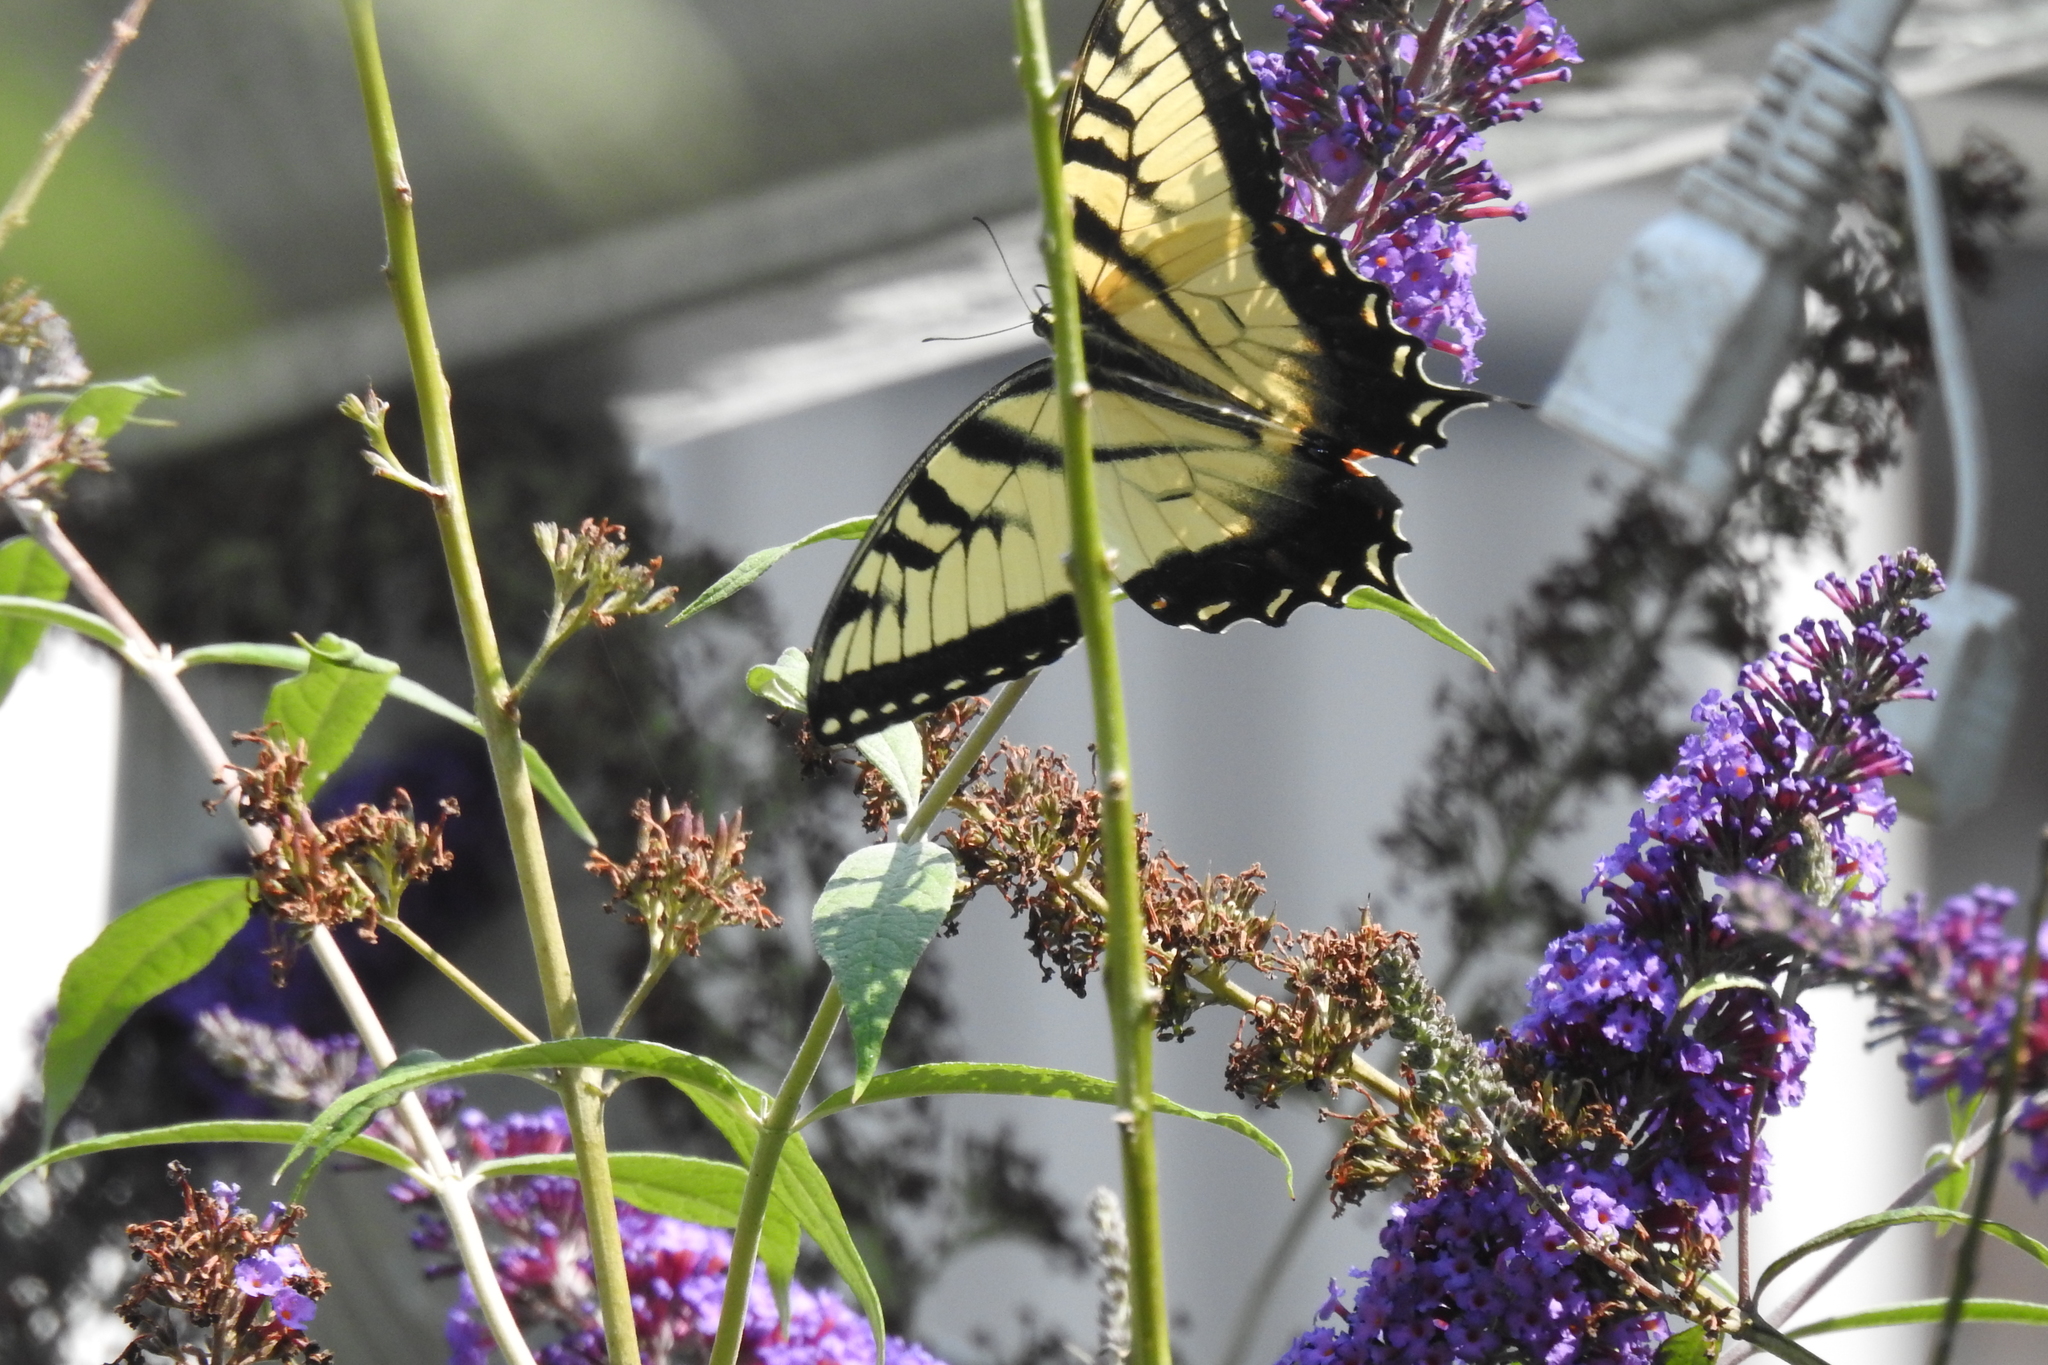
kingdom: Animalia
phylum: Arthropoda
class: Insecta
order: Lepidoptera
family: Papilionidae
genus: Papilio
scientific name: Papilio glaucus
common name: Tiger swallowtail
